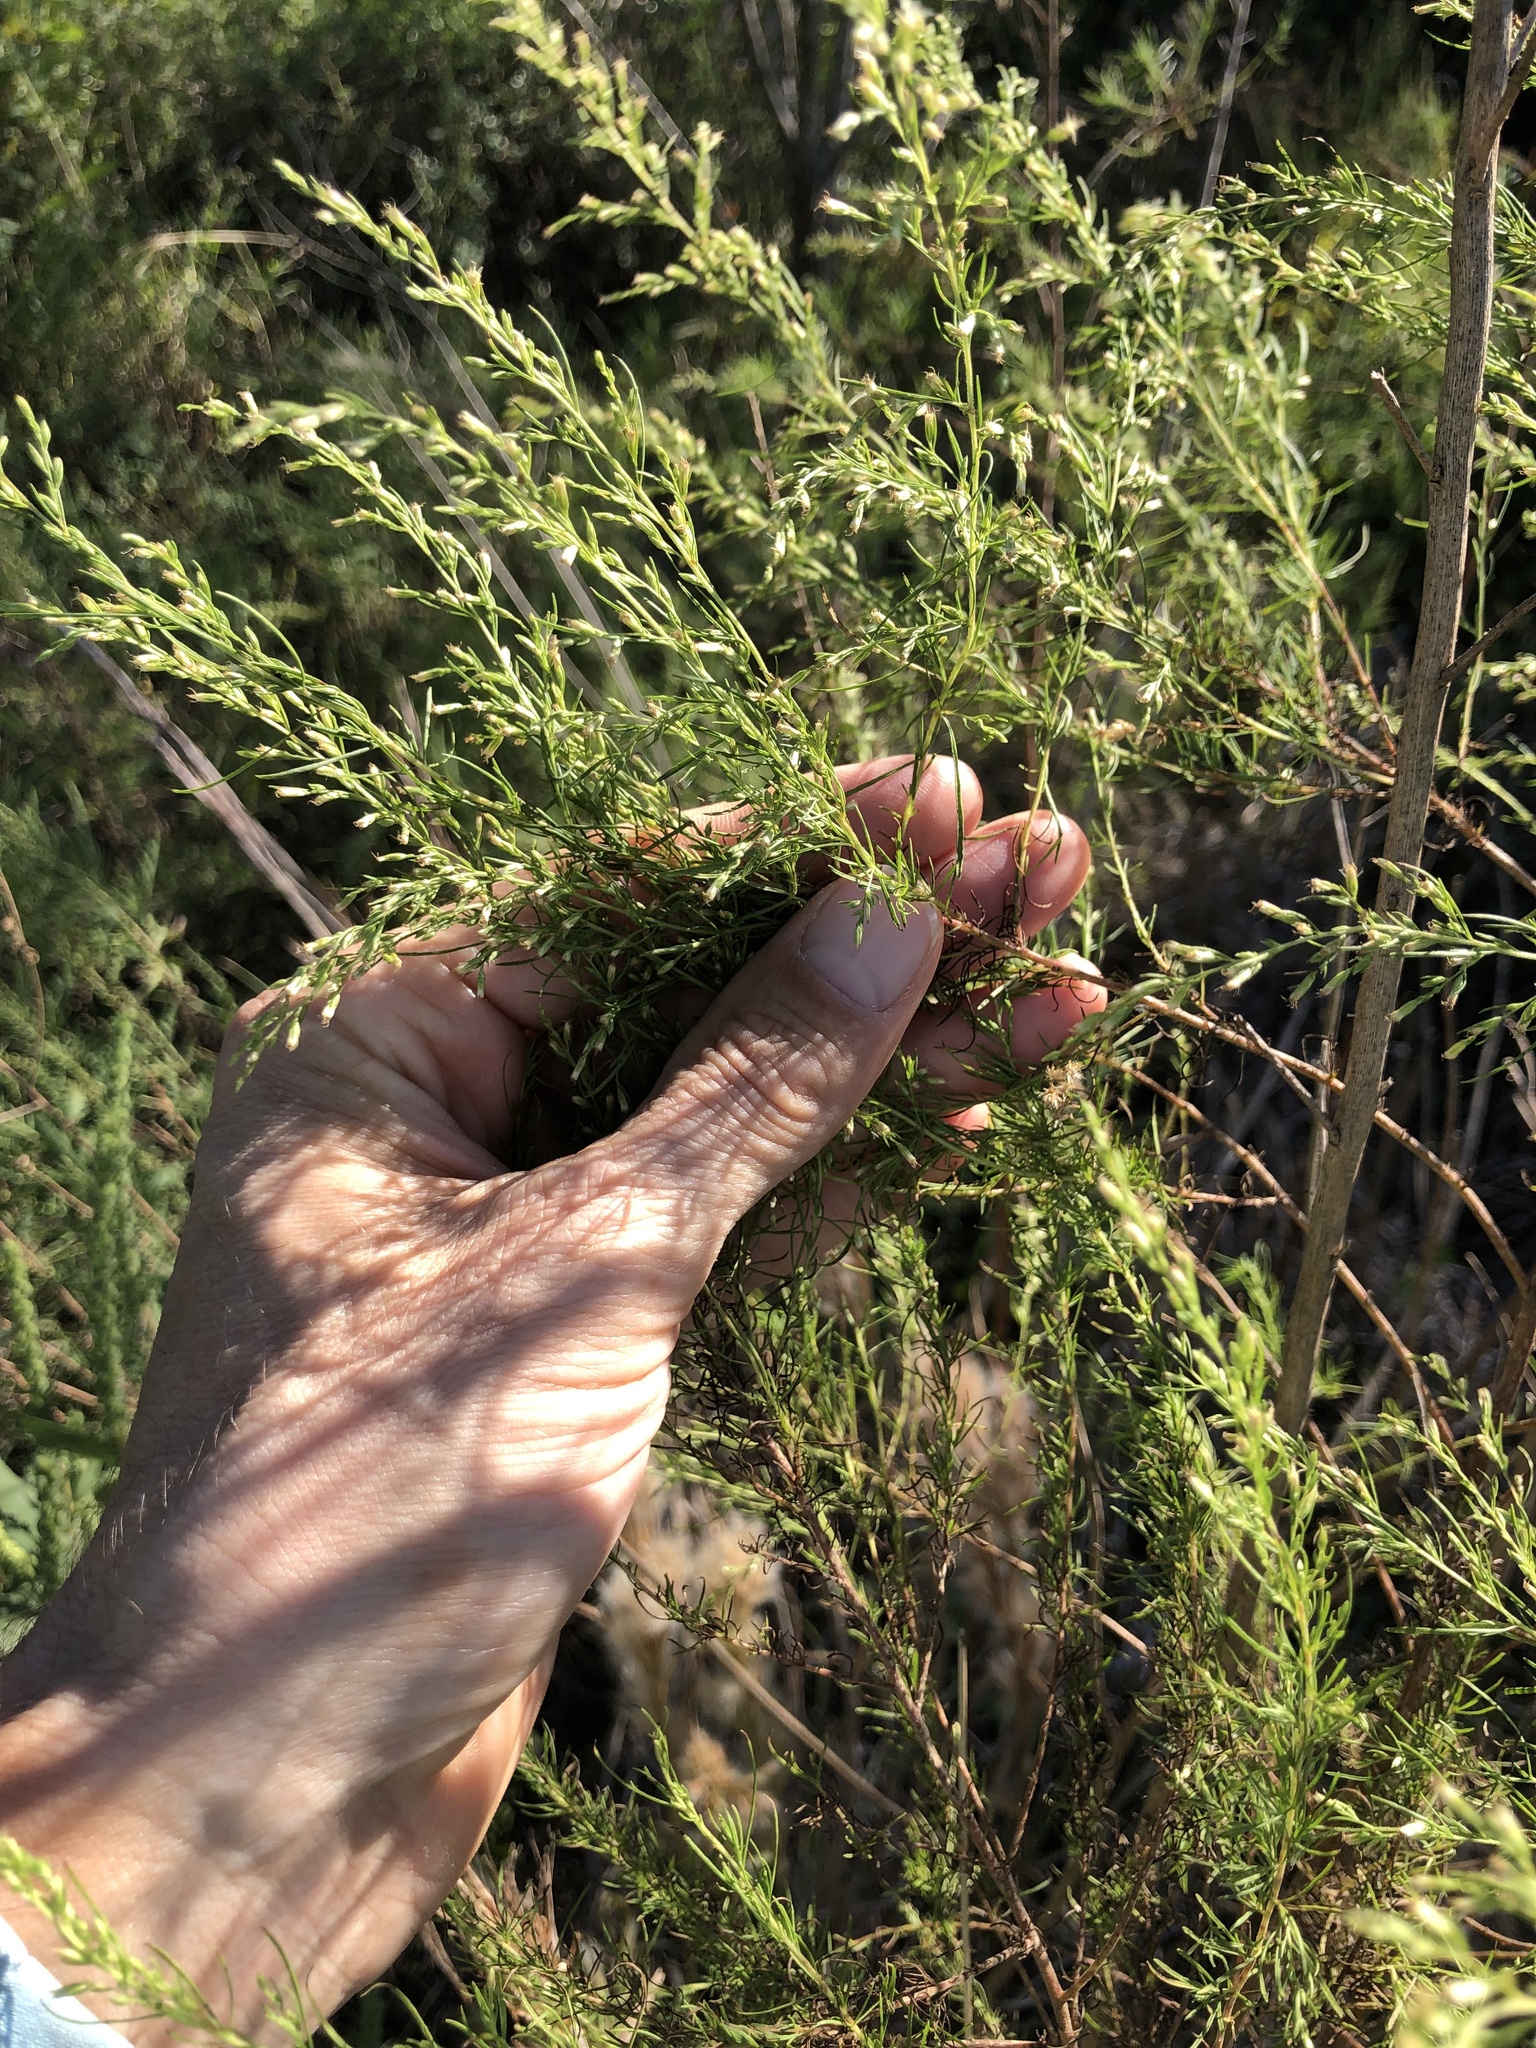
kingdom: Plantae
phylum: Tracheophyta
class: Magnoliopsida
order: Asterales
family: Asteraceae
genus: Eupatorium
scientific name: Eupatorium capillifolium
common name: Dog-fennel
